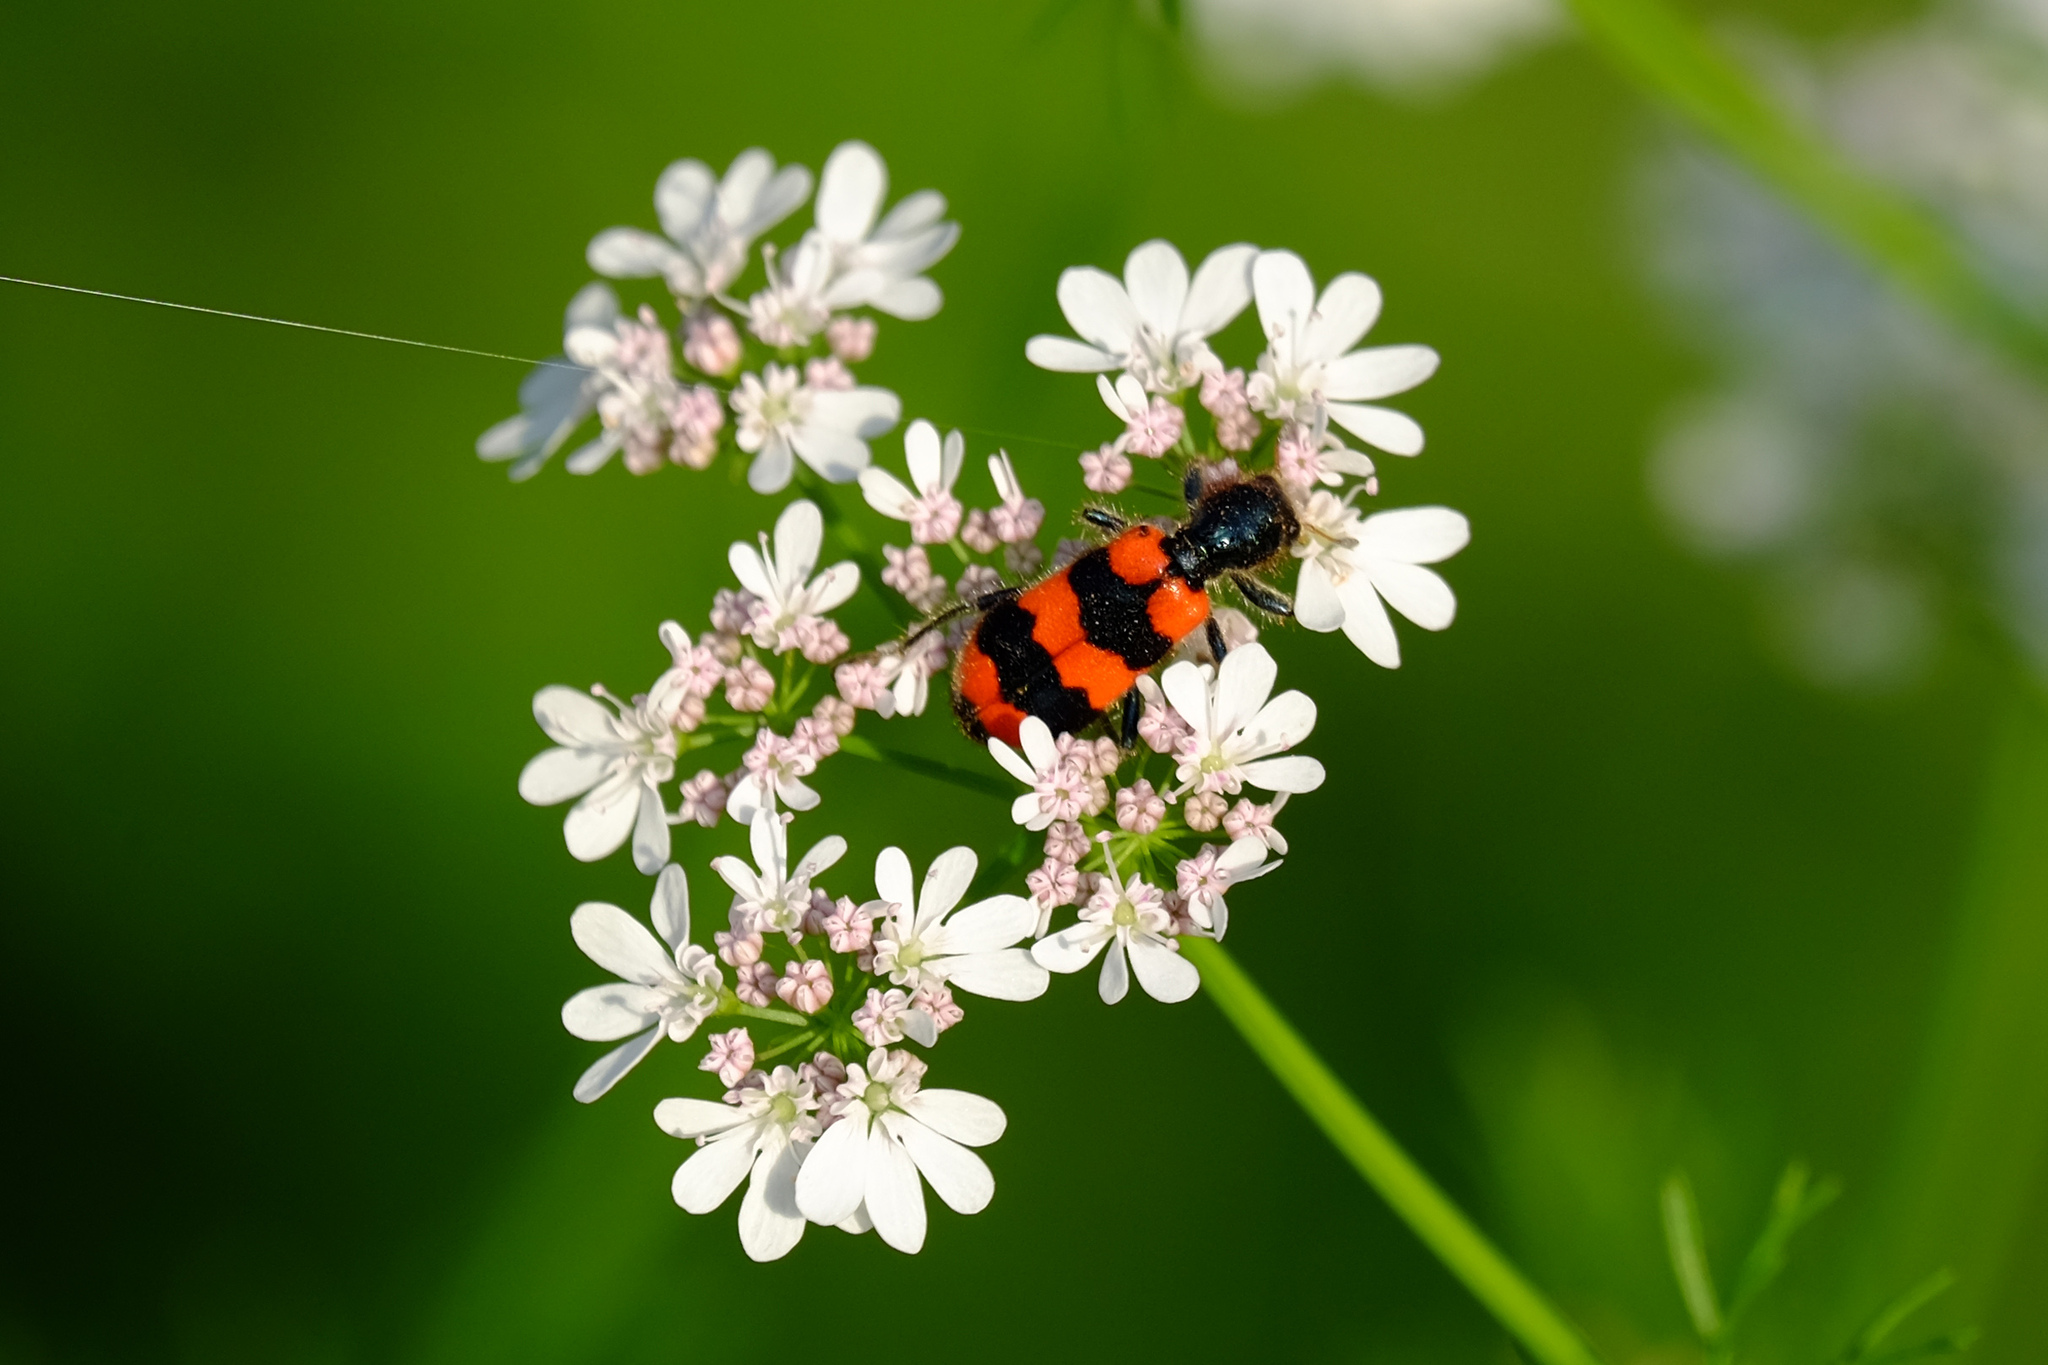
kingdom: Animalia
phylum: Arthropoda
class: Insecta
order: Coleoptera
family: Cleridae
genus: Trichodes
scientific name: Trichodes apiarius
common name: Bee-eating beetle
